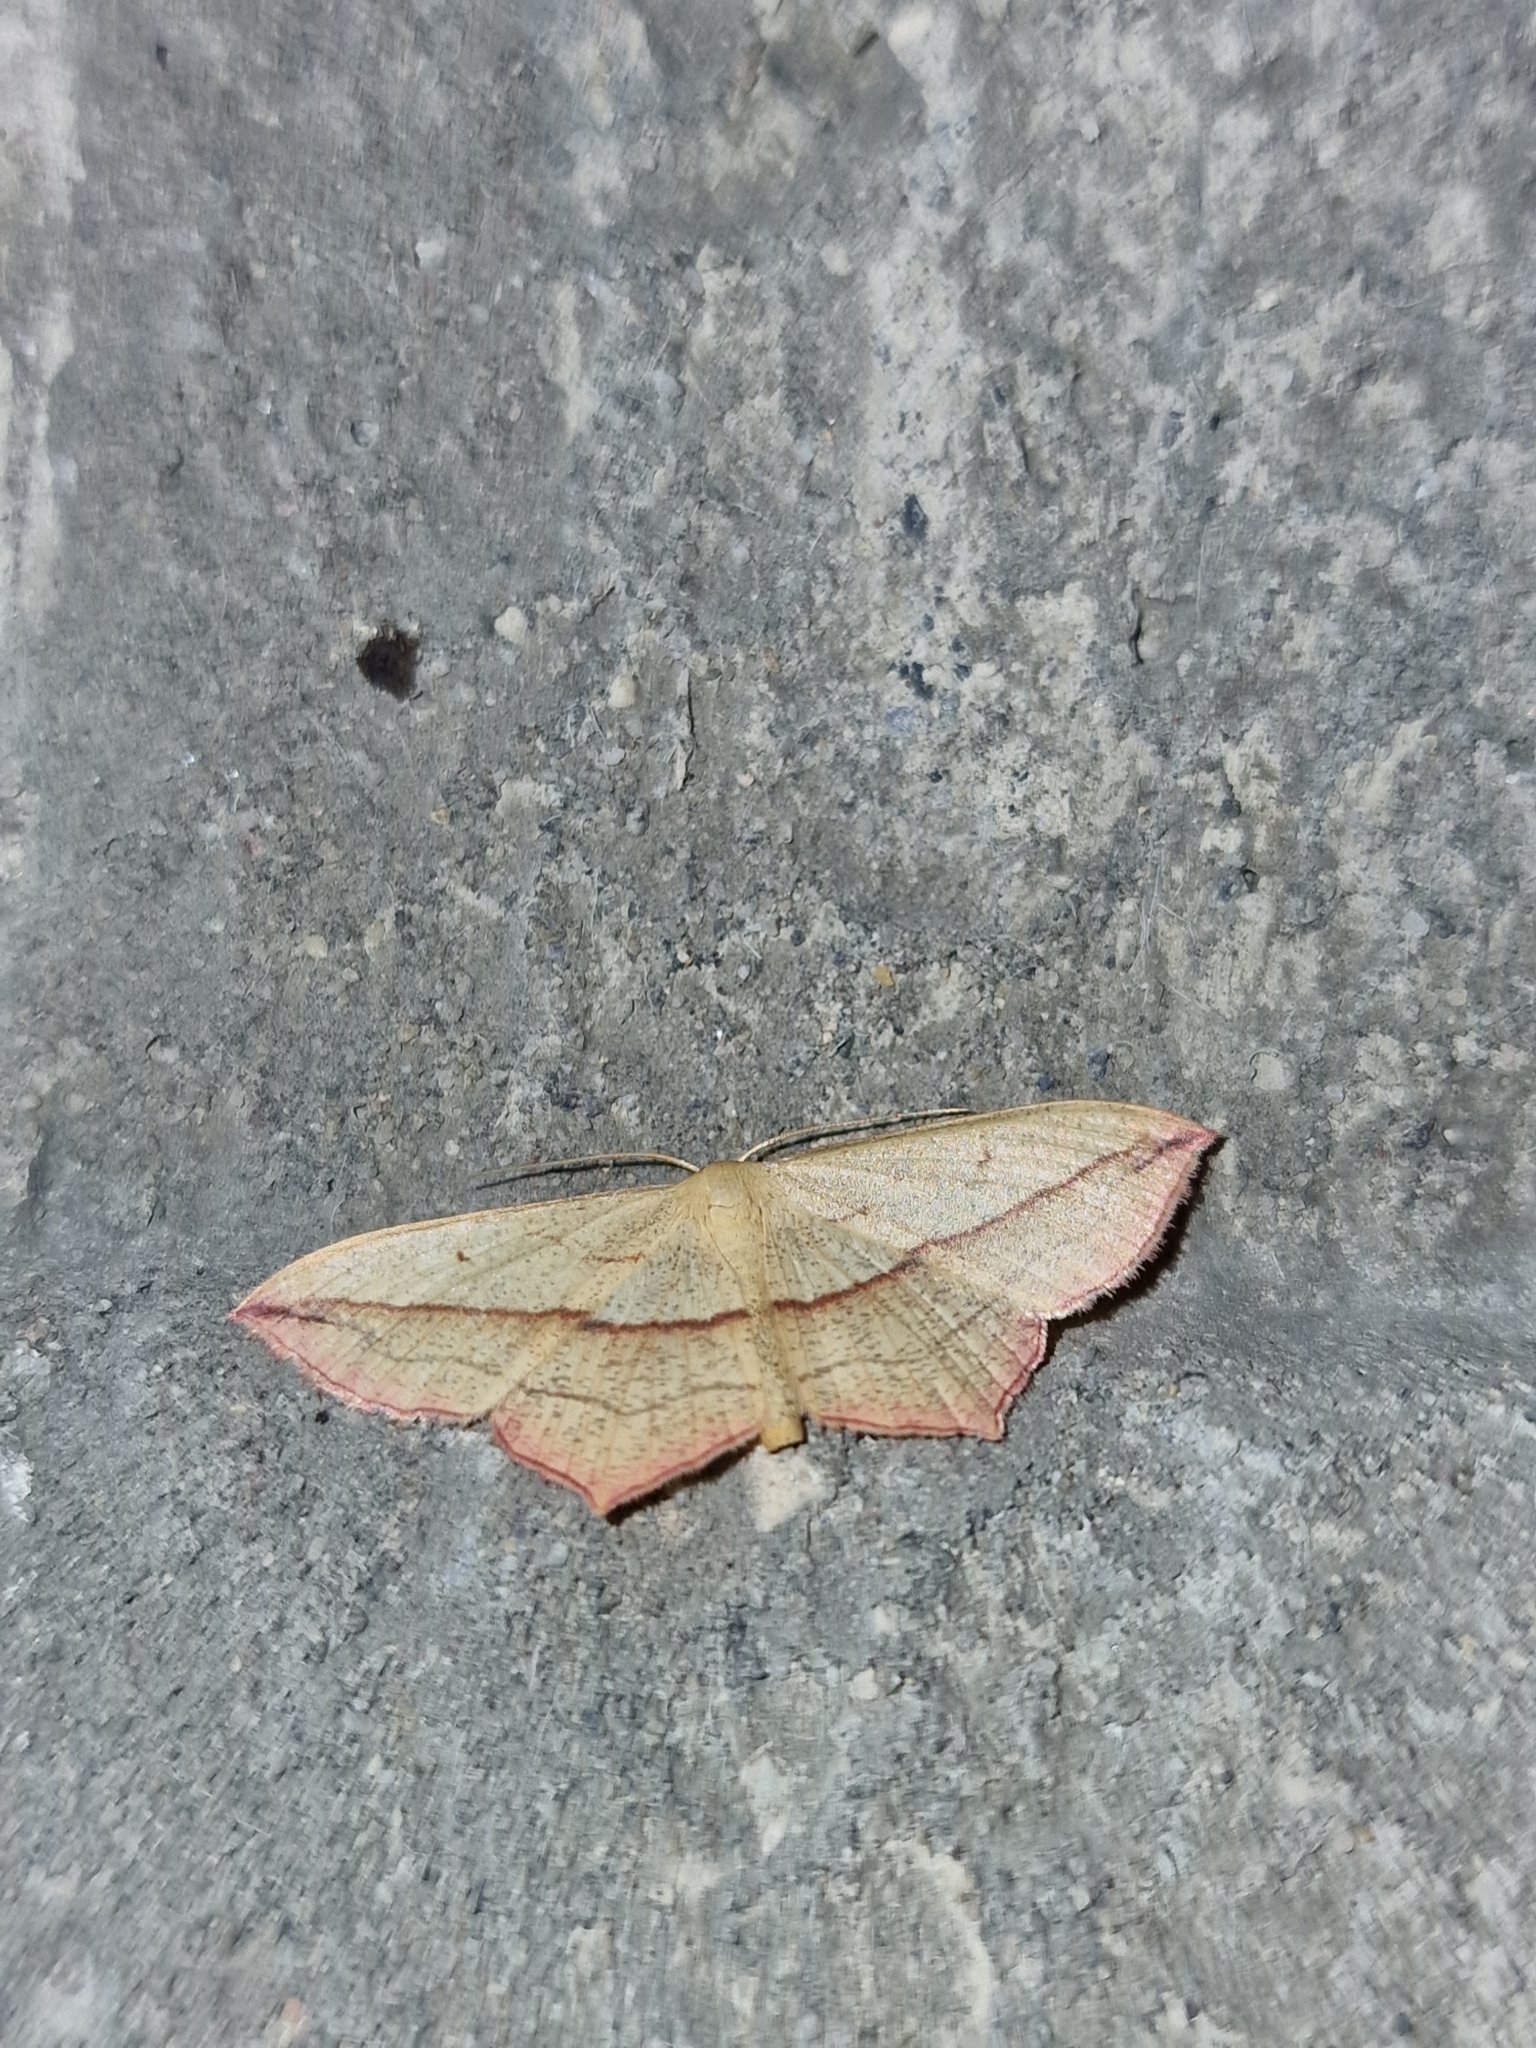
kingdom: Animalia
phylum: Arthropoda
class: Insecta
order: Lepidoptera
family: Geometridae
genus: Timandra
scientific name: Timandra comae
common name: Blood-vein
